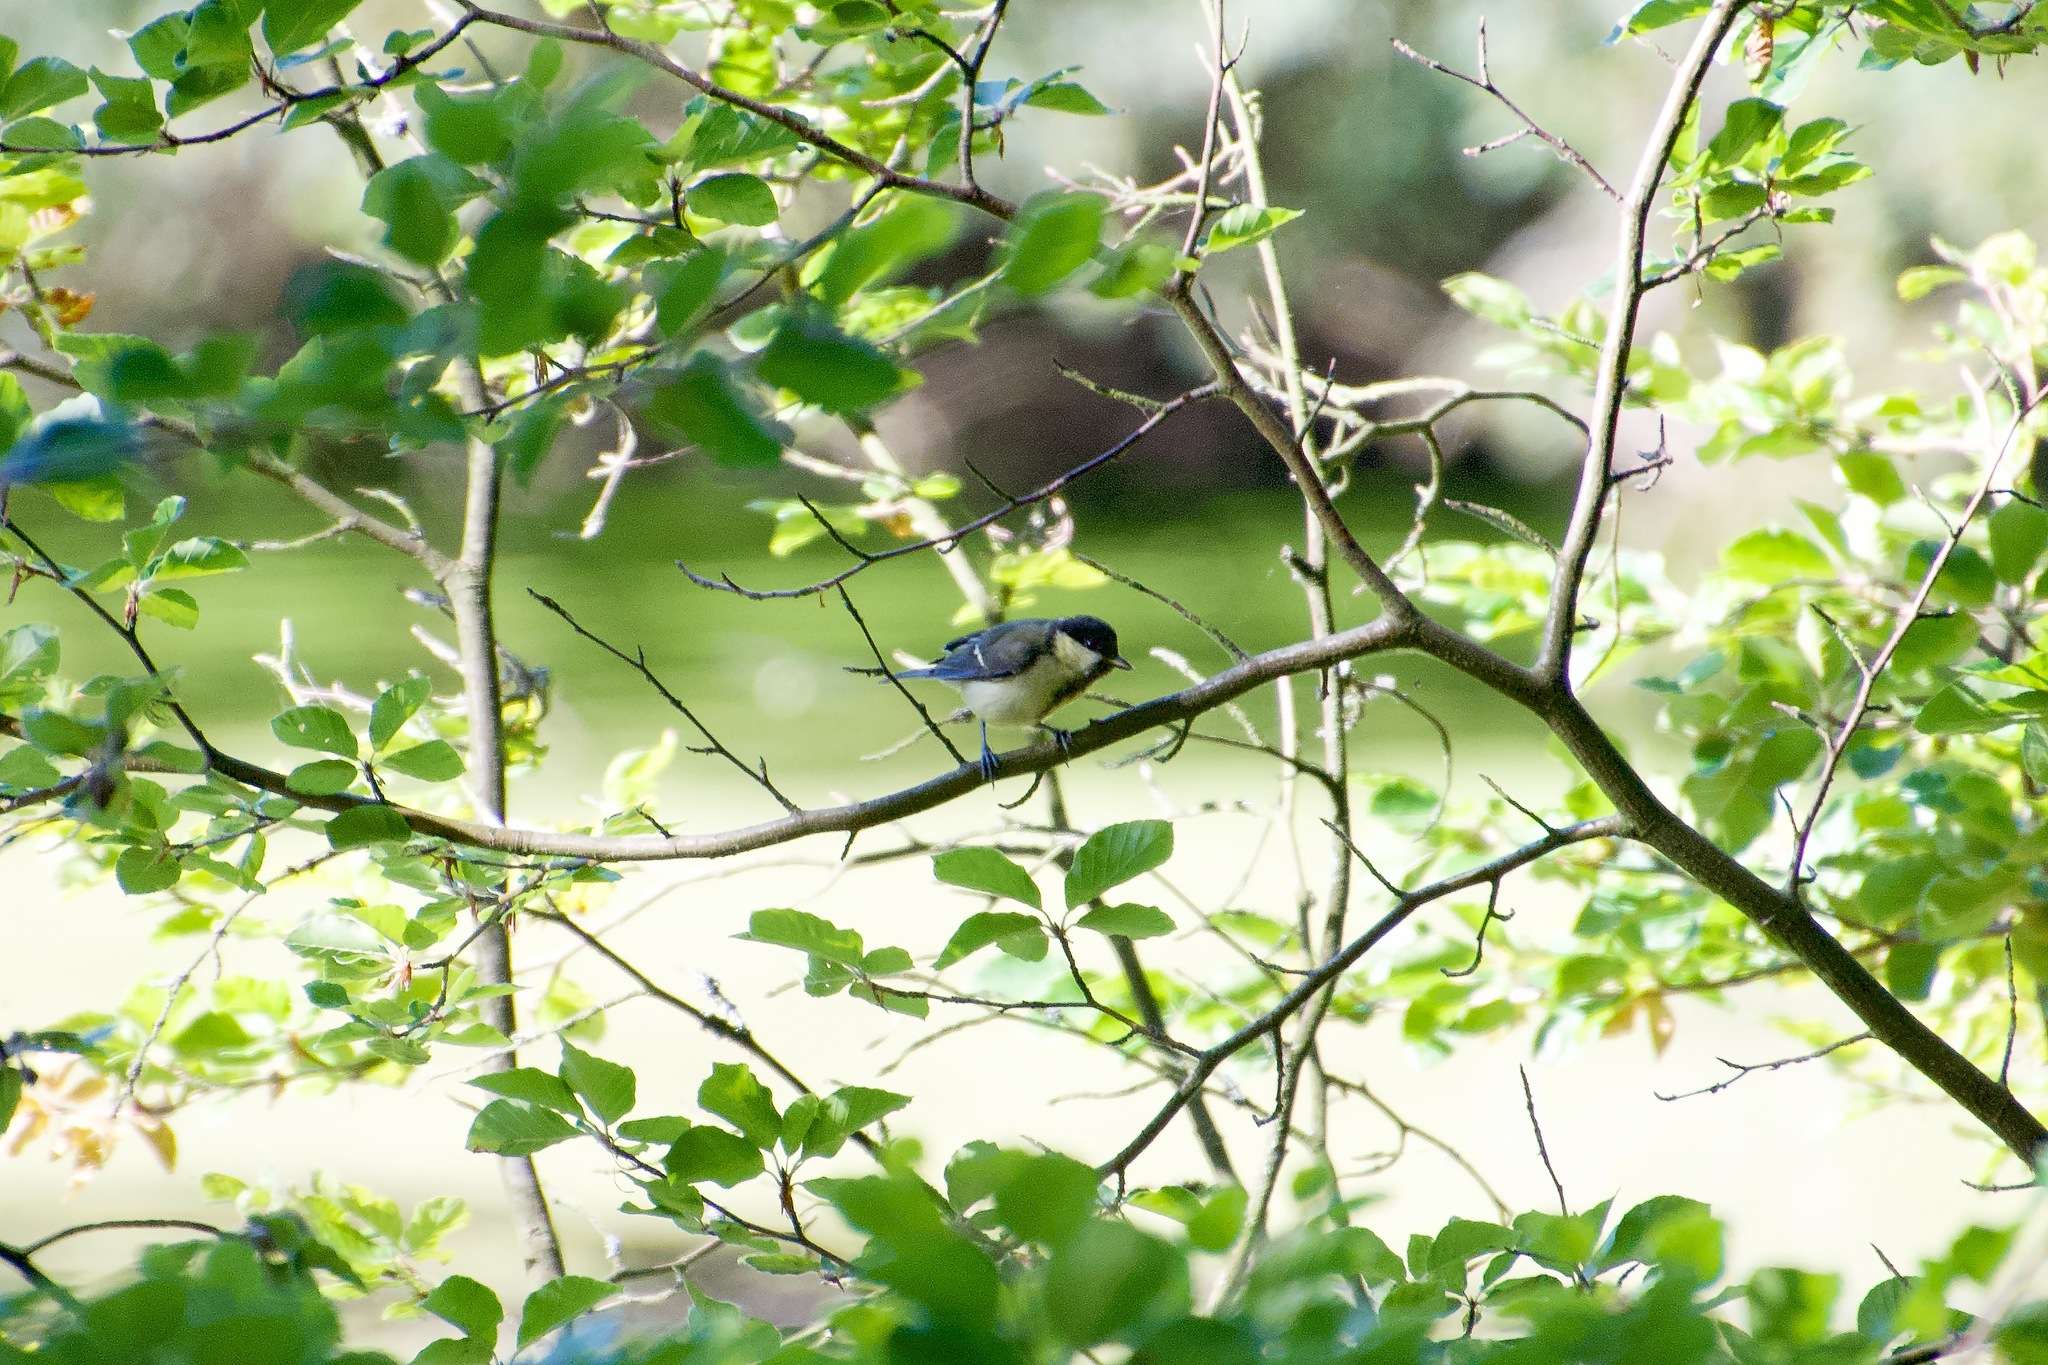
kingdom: Animalia
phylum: Chordata
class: Aves
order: Passeriformes
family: Paridae
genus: Parus
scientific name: Parus major
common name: Great tit
